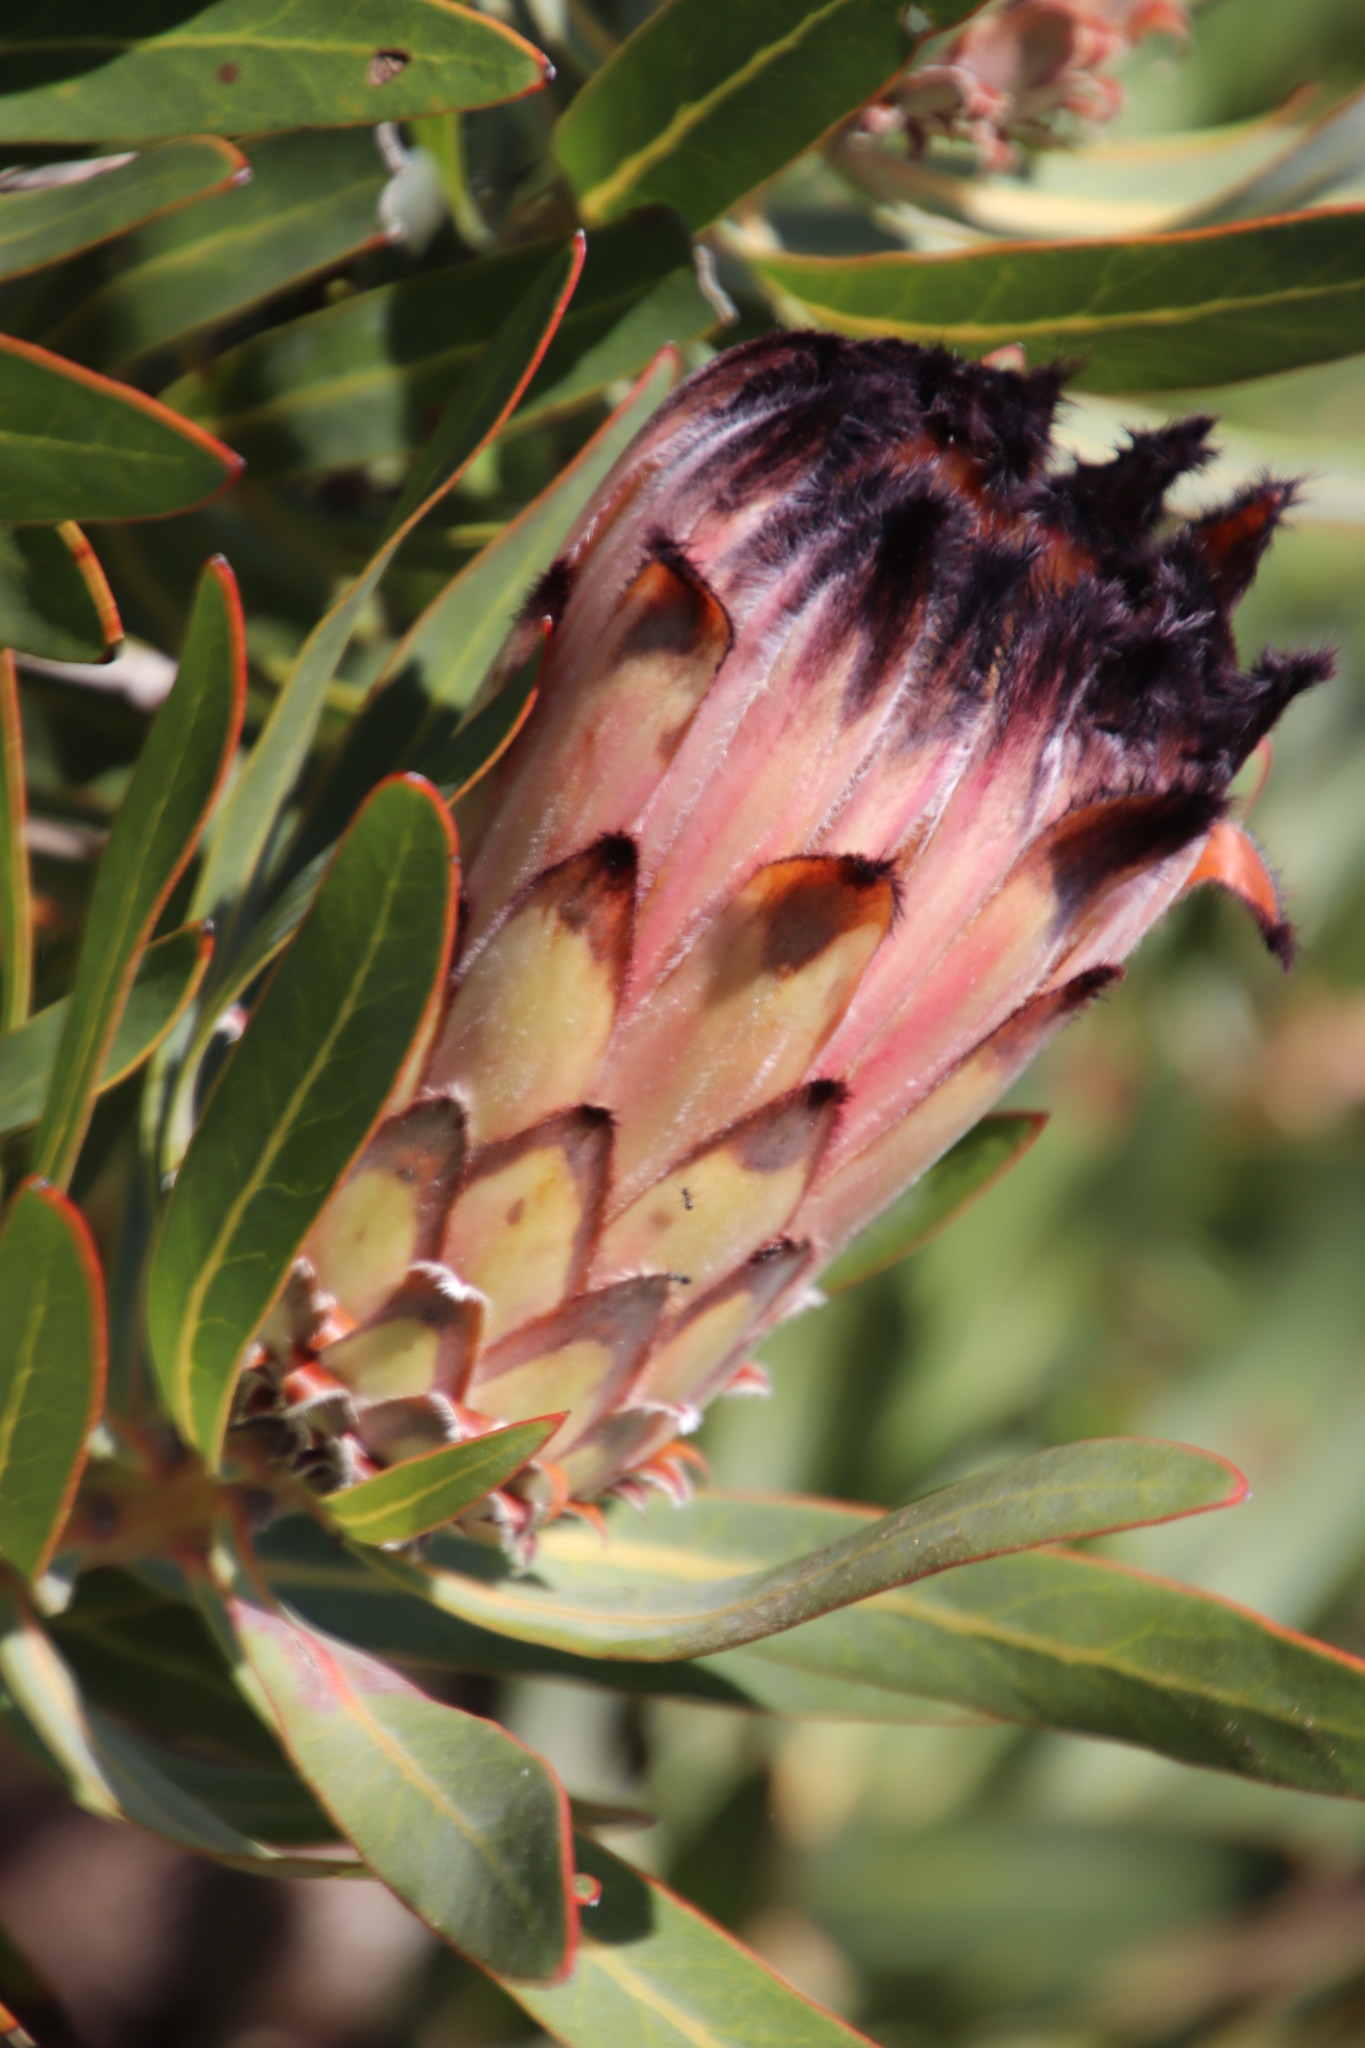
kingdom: Plantae
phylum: Tracheophyta
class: Magnoliopsida
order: Proteales
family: Proteaceae
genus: Protea
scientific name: Protea
